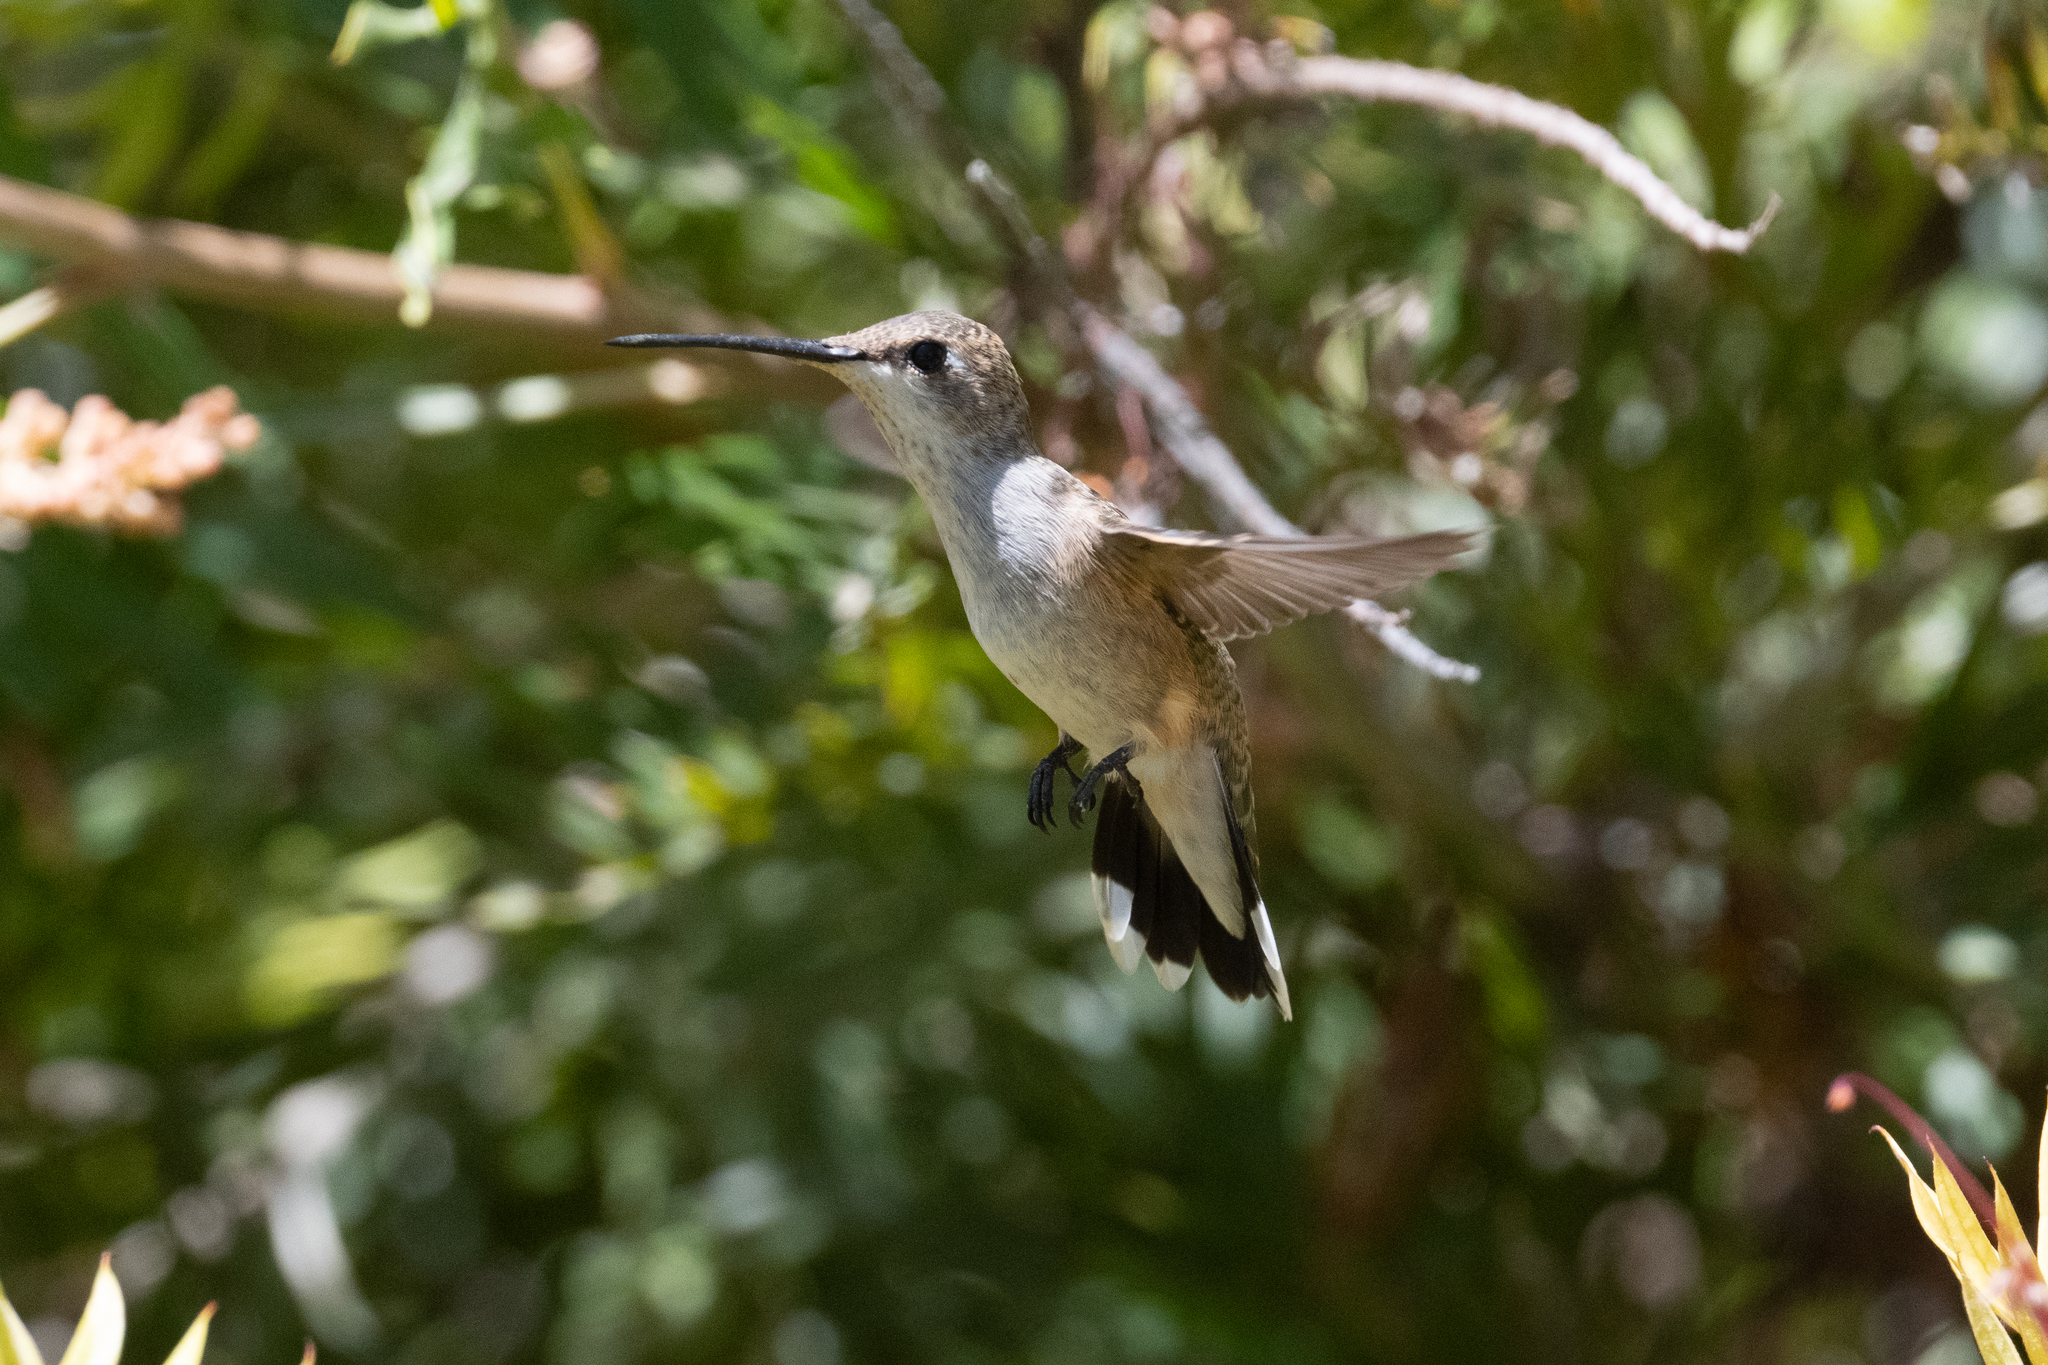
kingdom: Animalia
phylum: Chordata
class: Aves
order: Apodiformes
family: Trochilidae
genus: Archilochus
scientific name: Archilochus alexandri
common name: Black-chinned hummingbird
